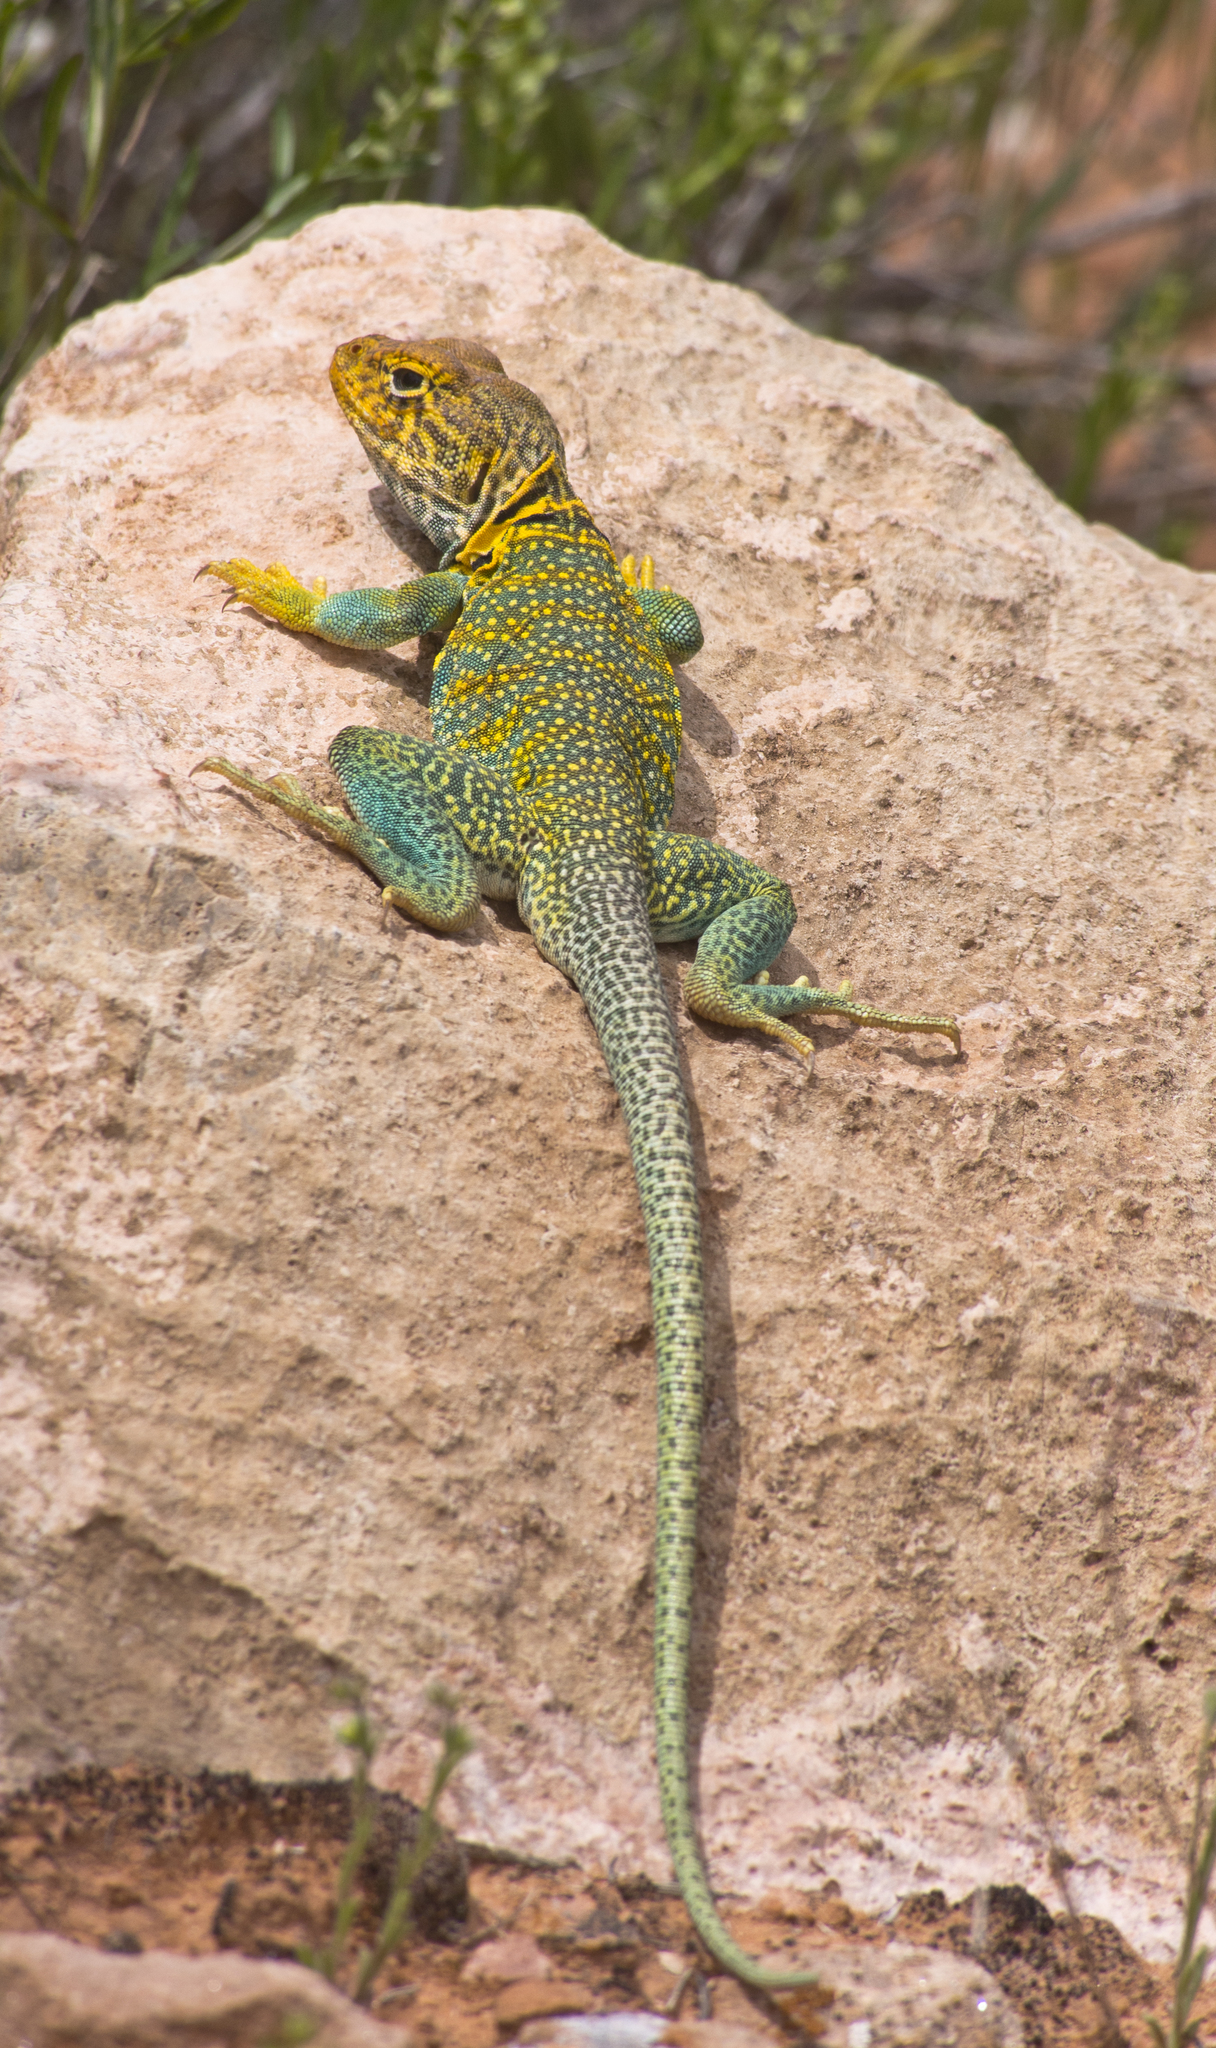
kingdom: Animalia
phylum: Chordata
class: Squamata
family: Crotaphytidae
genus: Crotaphytus
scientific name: Crotaphytus collaris
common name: Collared lizard
